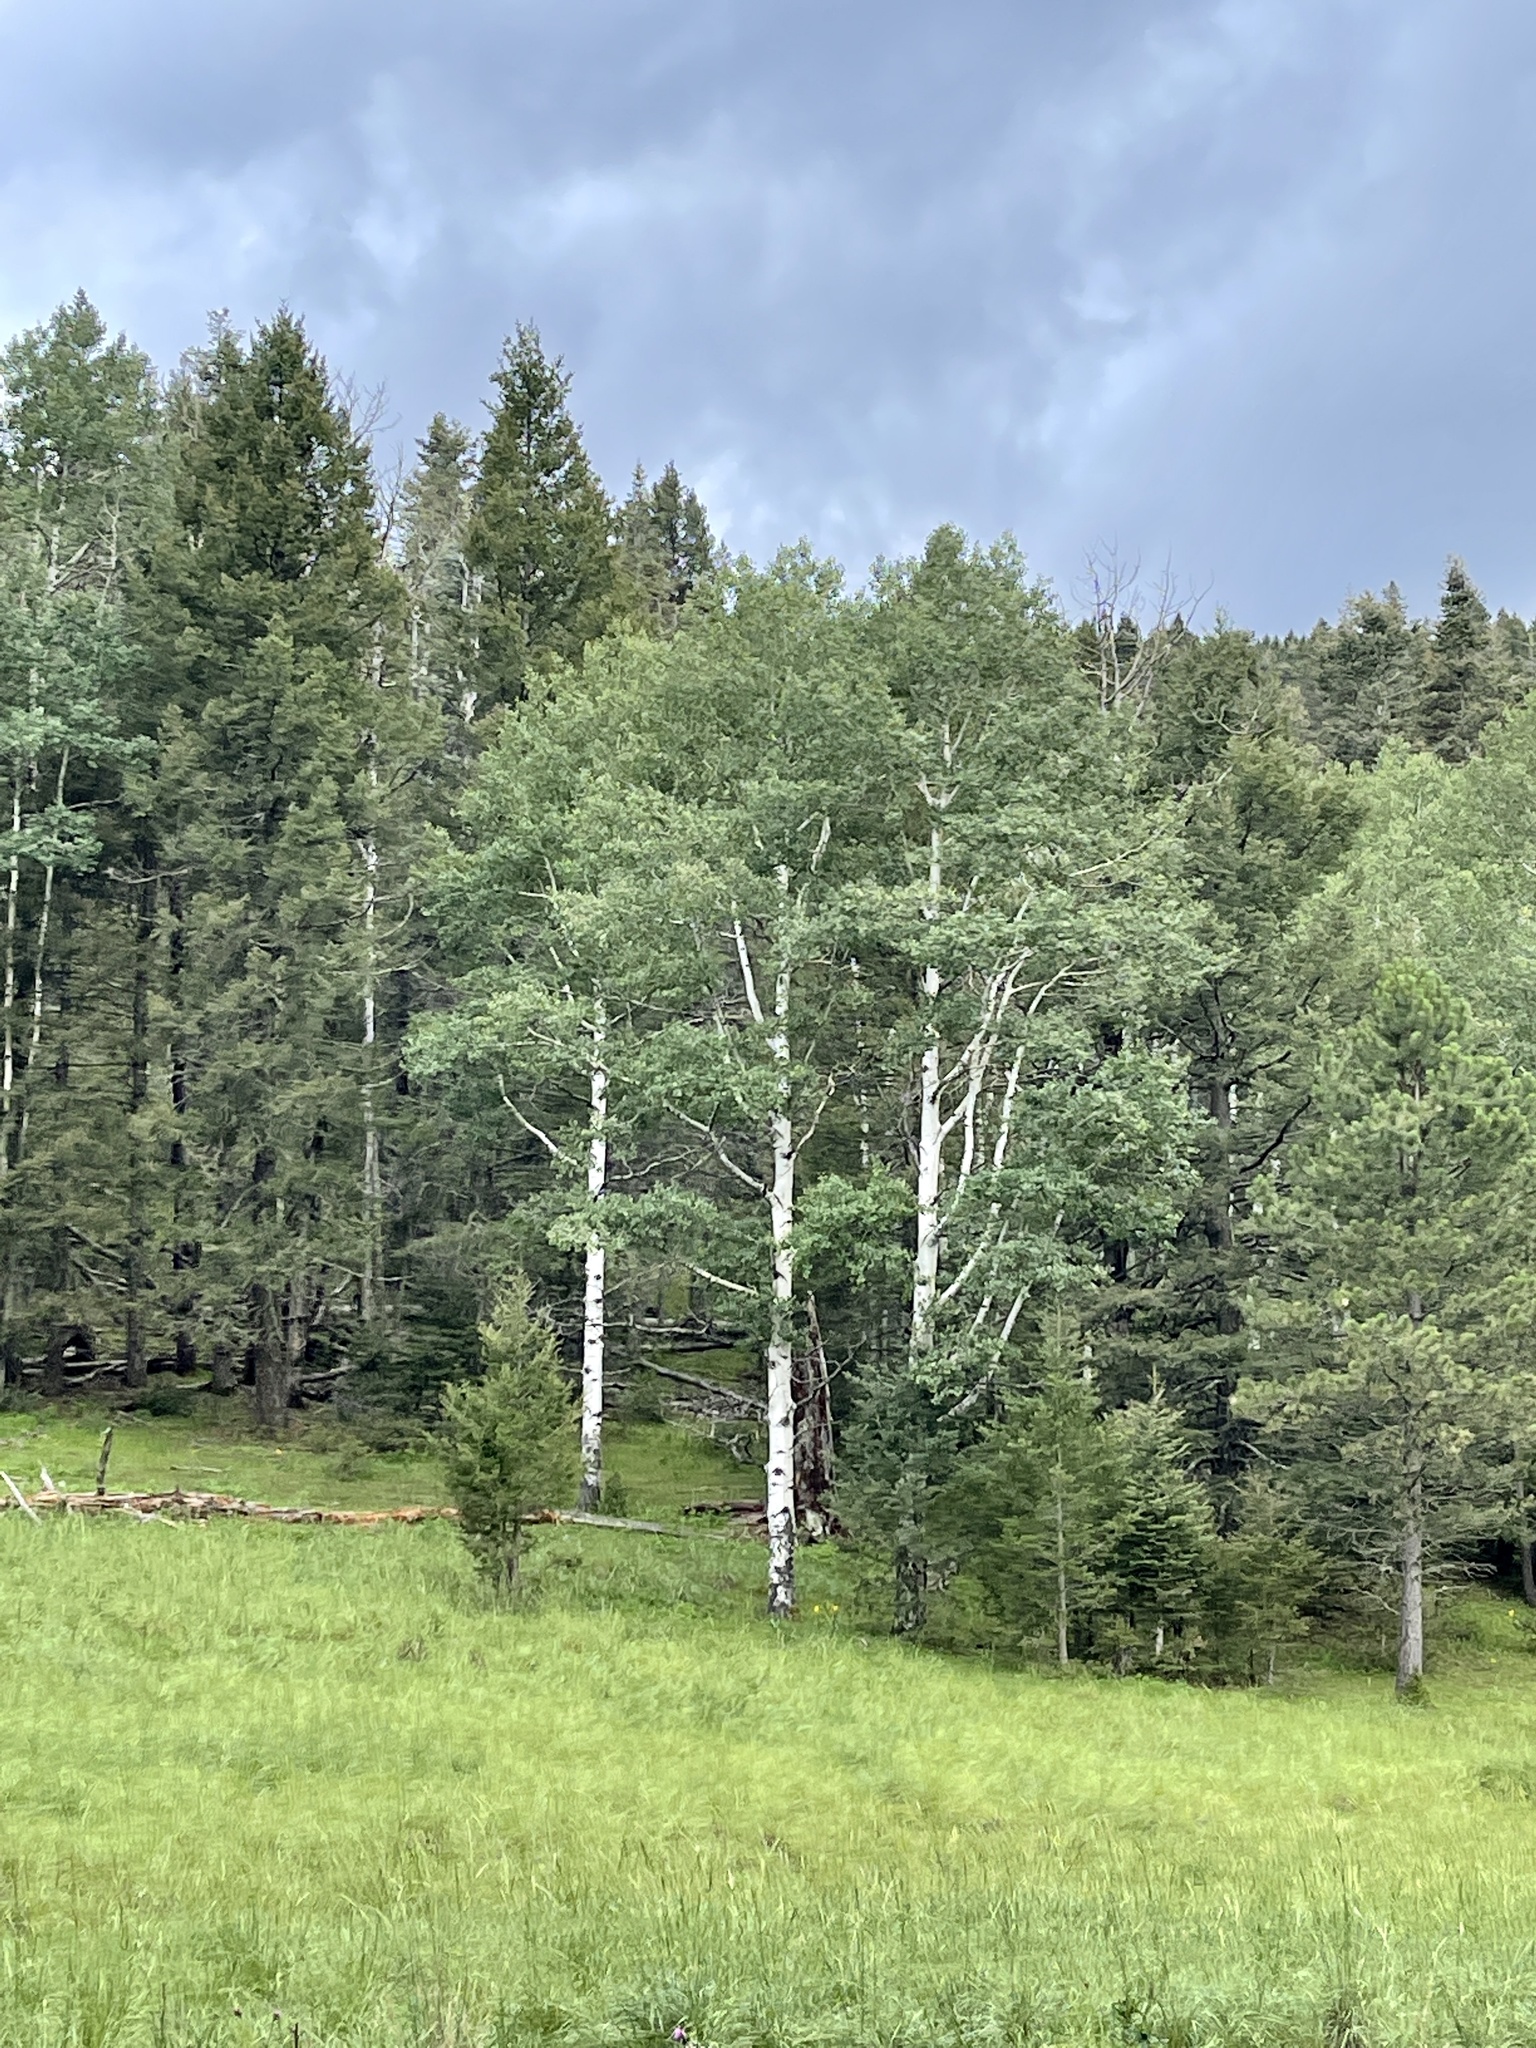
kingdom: Plantae
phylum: Tracheophyta
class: Magnoliopsida
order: Malpighiales
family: Salicaceae
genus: Populus
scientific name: Populus tremuloides
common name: Quaking aspen
